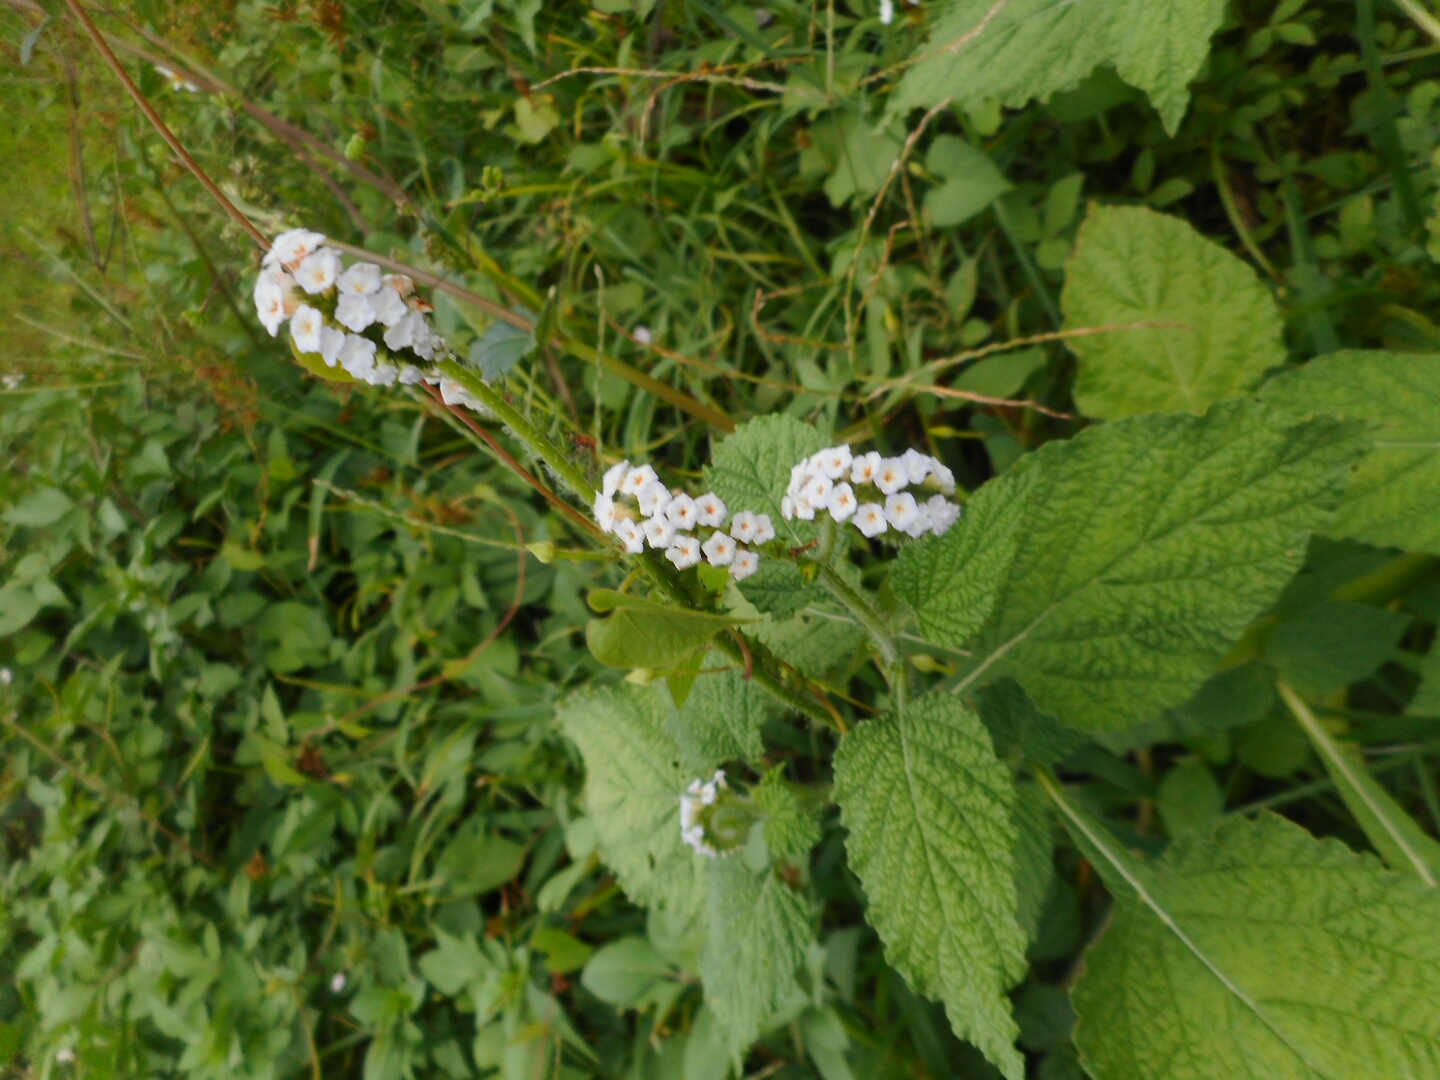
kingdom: Plantae
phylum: Tracheophyta
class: Magnoliopsida
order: Boraginales
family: Heliotropiaceae
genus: Heliotropium
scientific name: Heliotropium indicum
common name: Indian heliotrope
